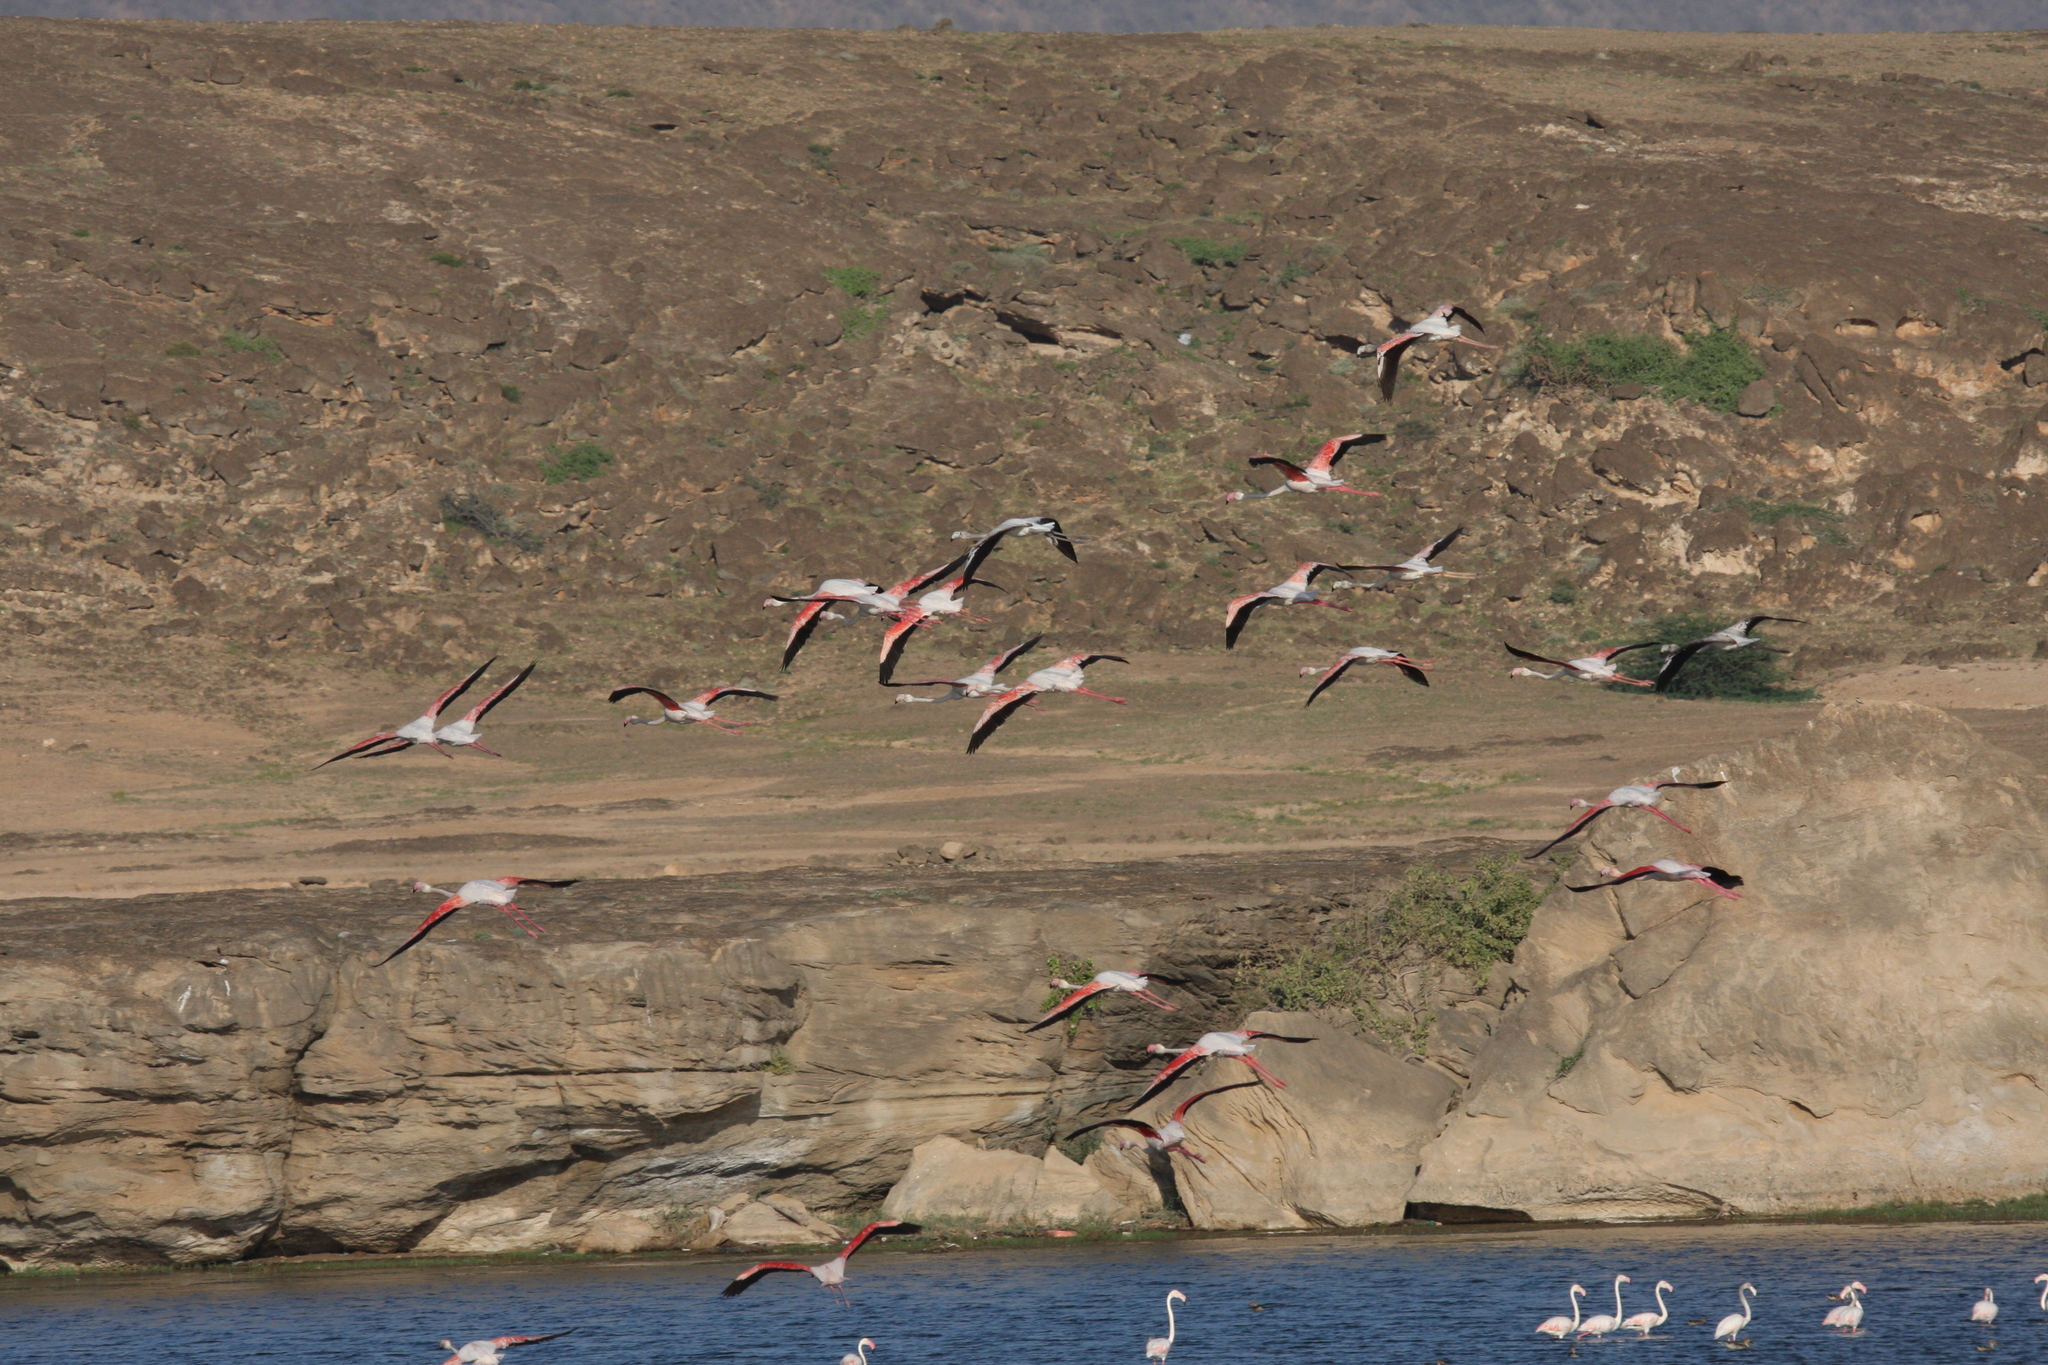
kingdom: Animalia
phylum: Chordata
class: Aves
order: Phoenicopteriformes
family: Phoenicopteridae
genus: Phoenicopterus
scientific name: Phoenicopterus roseus
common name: Greater flamingo
